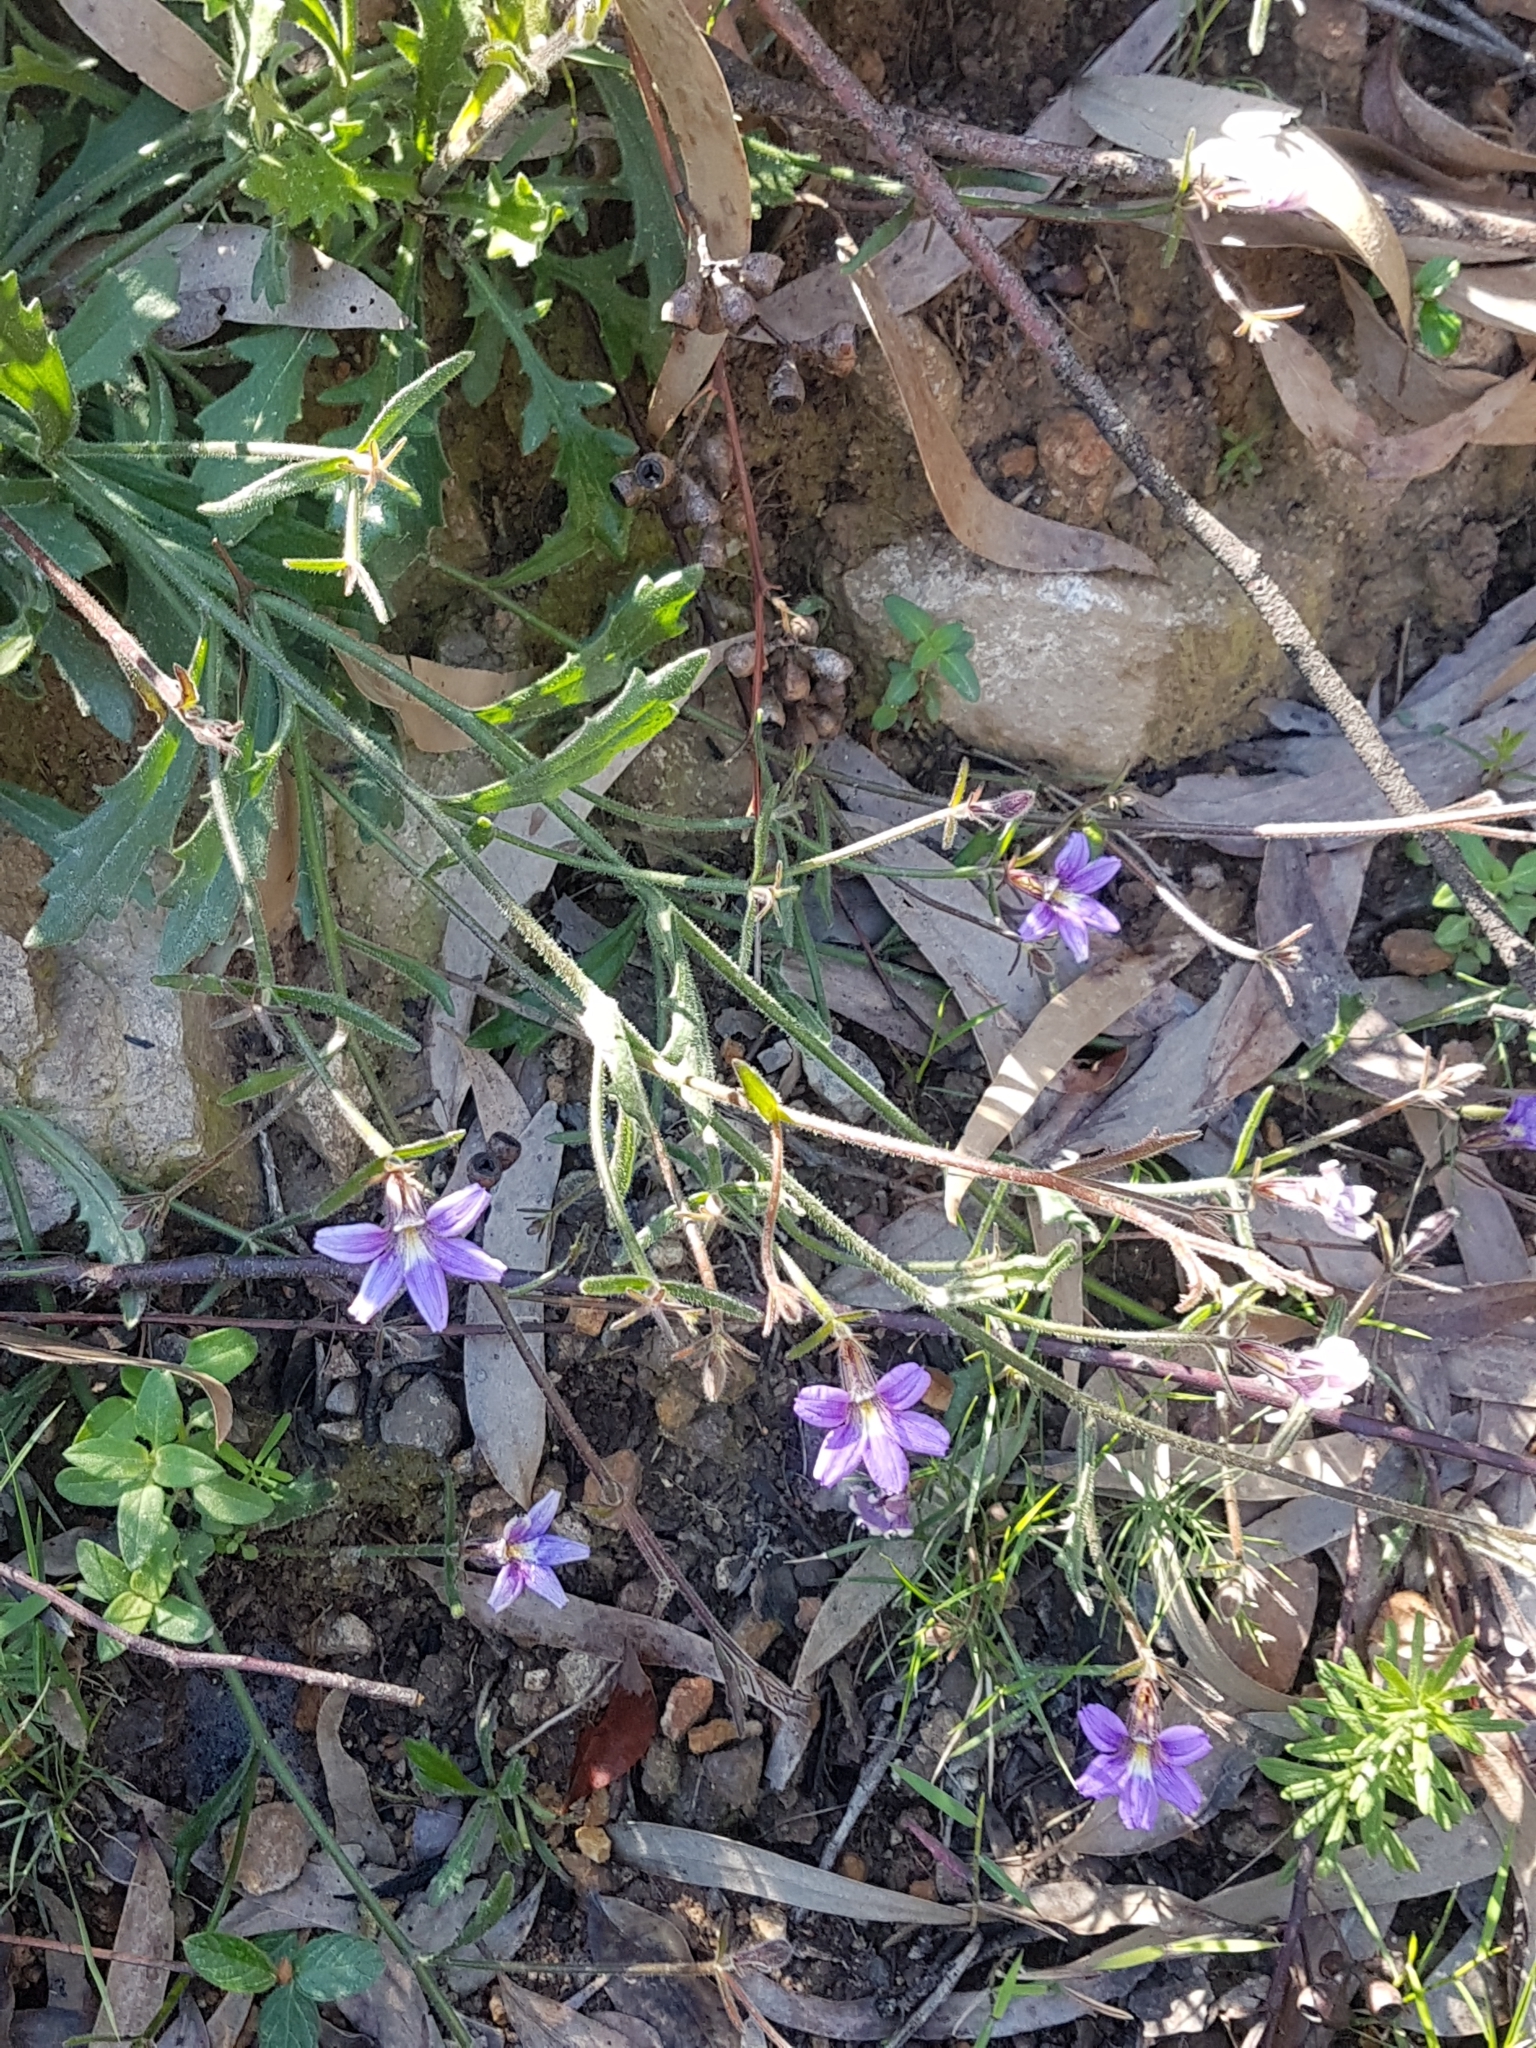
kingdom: Plantae
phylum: Tracheophyta
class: Magnoliopsida
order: Asterales
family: Goodeniaceae
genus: Scaevola
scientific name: Scaevola ramosissima
